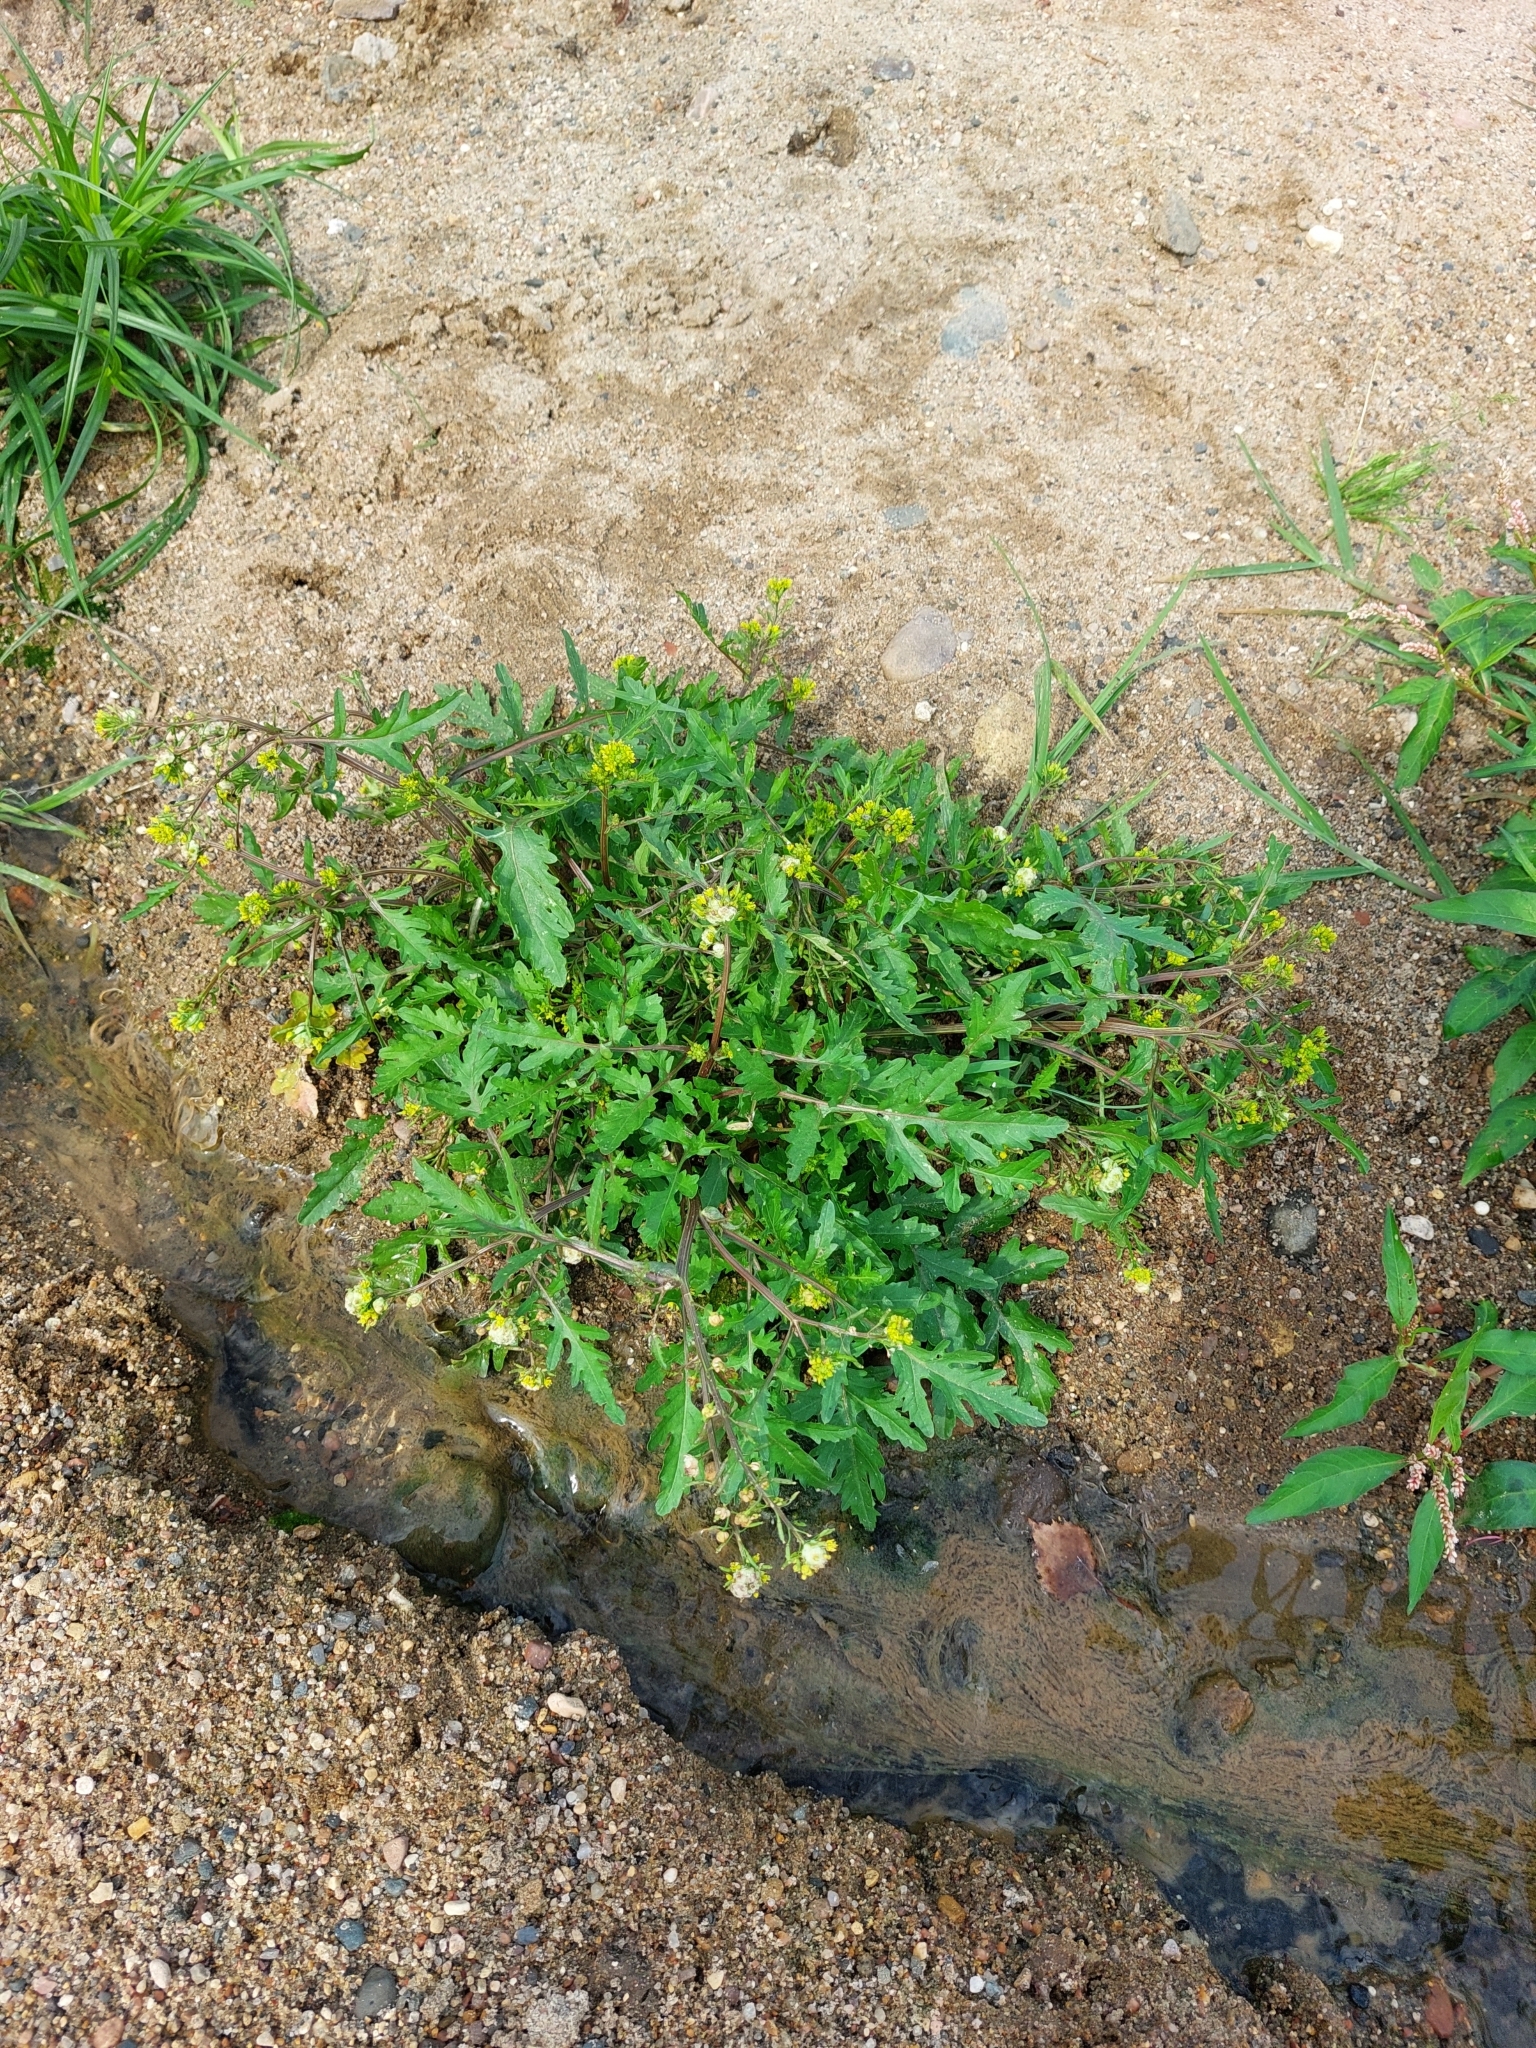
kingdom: Plantae
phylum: Tracheophyta
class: Magnoliopsida
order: Brassicales
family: Brassicaceae
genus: Rorippa
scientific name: Rorippa palustris
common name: Marsh yellow-cress
